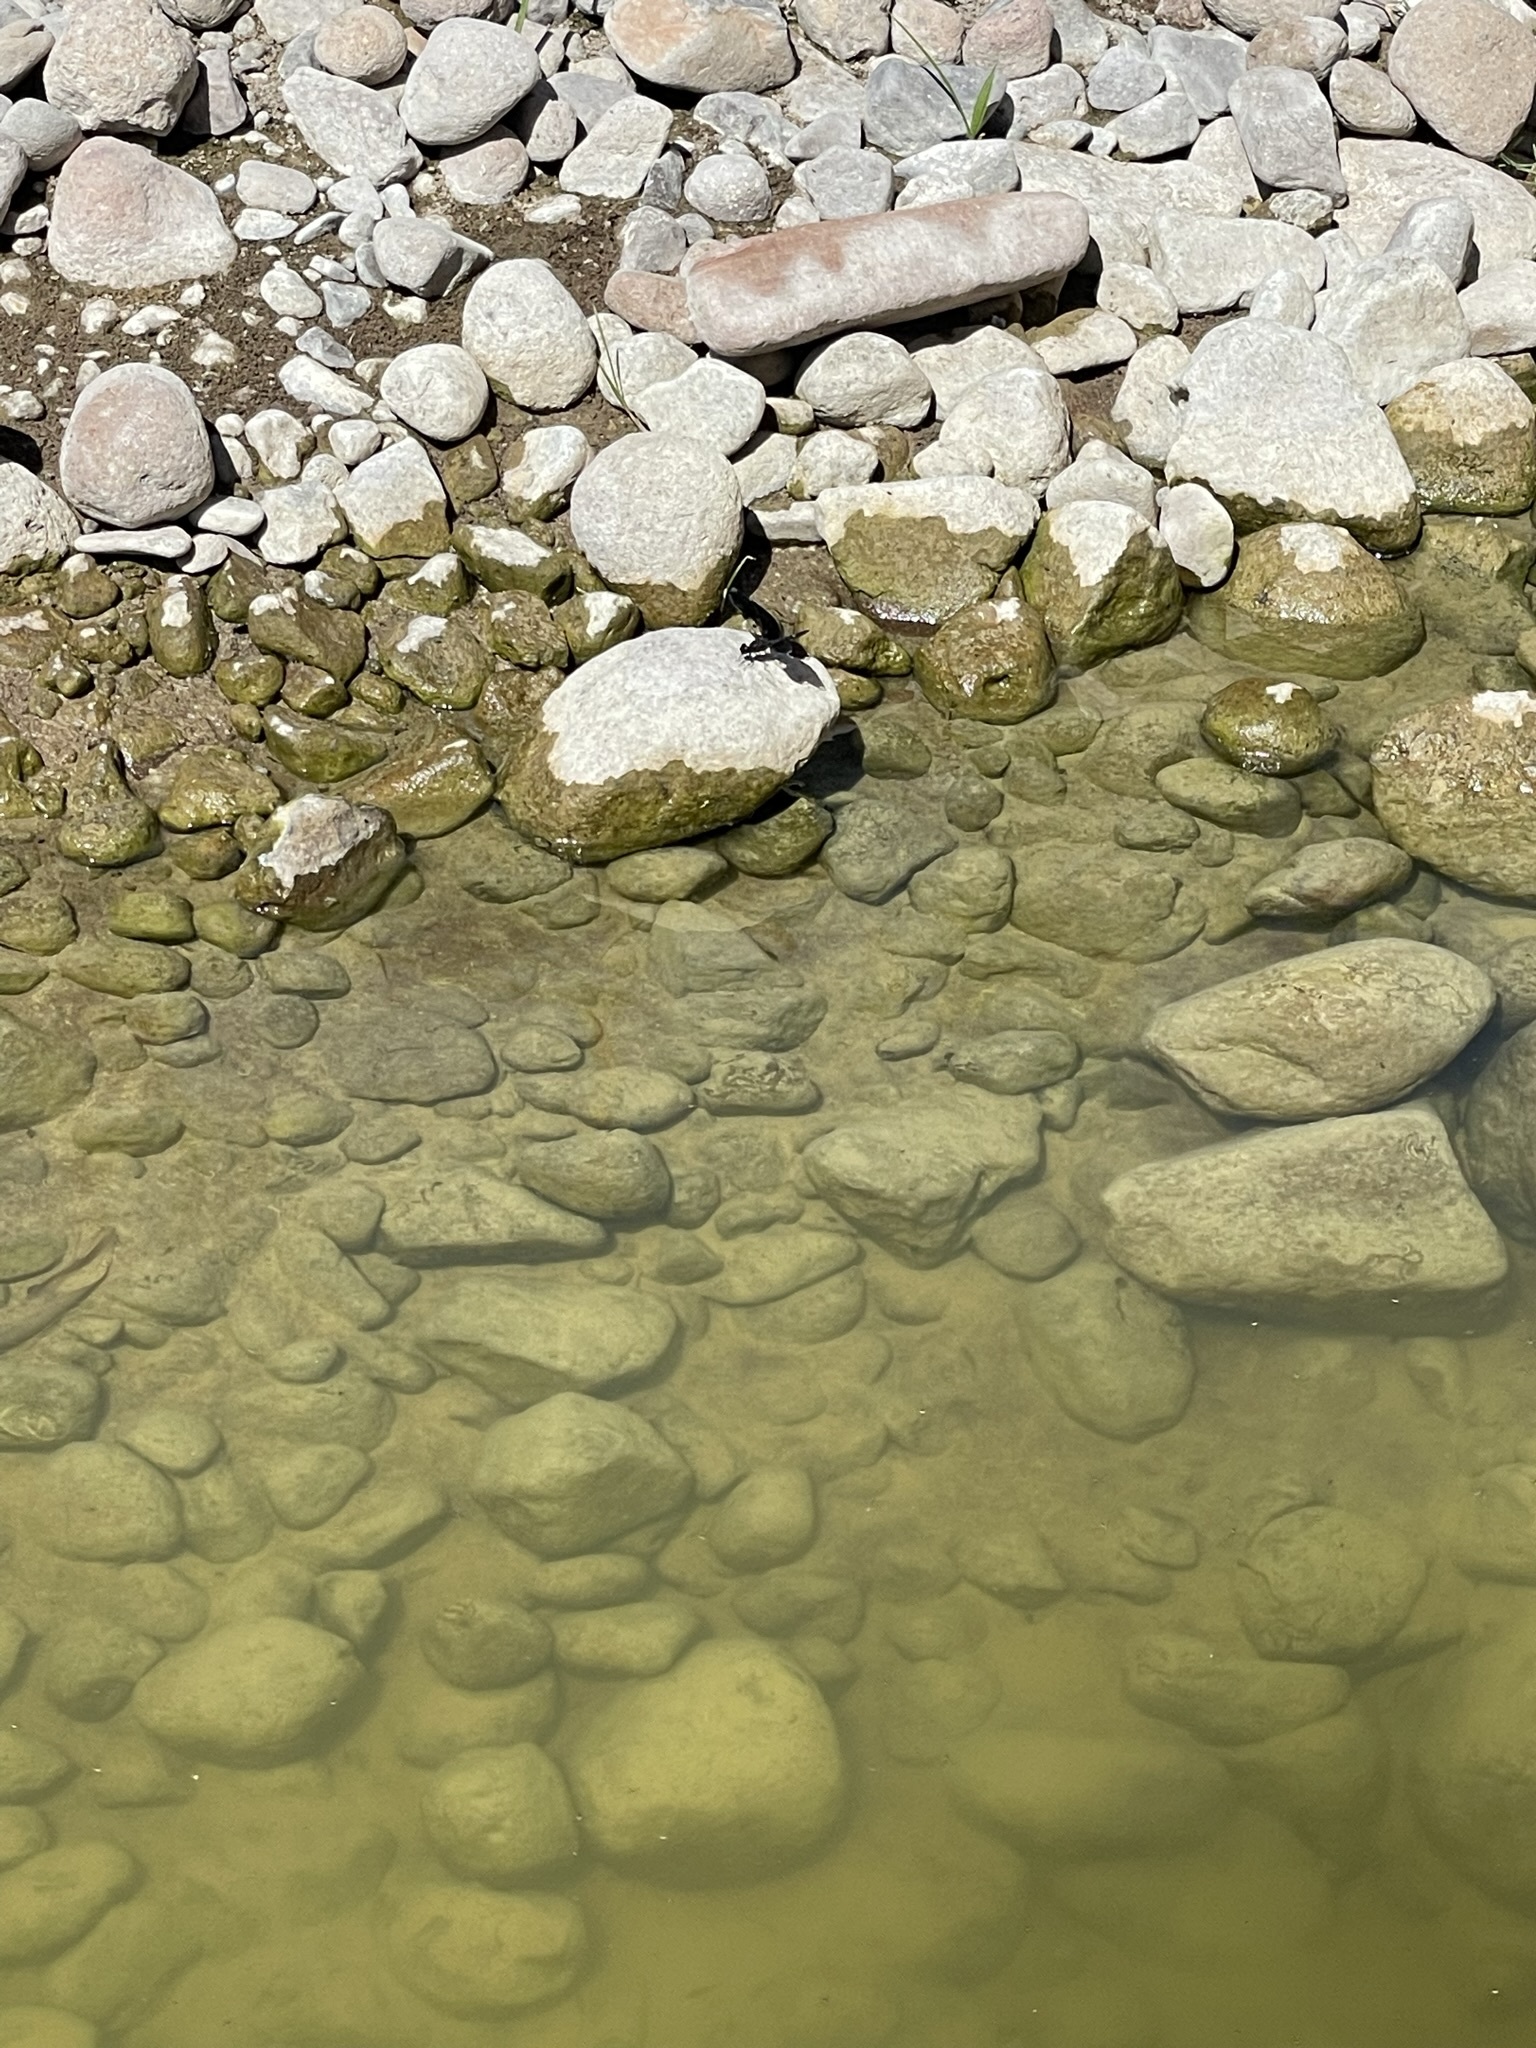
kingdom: Animalia
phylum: Arthropoda
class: Insecta
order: Odonata
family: Libellulidae
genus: Pseudoleon
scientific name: Pseudoleon superbus
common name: Filigree skimmer
